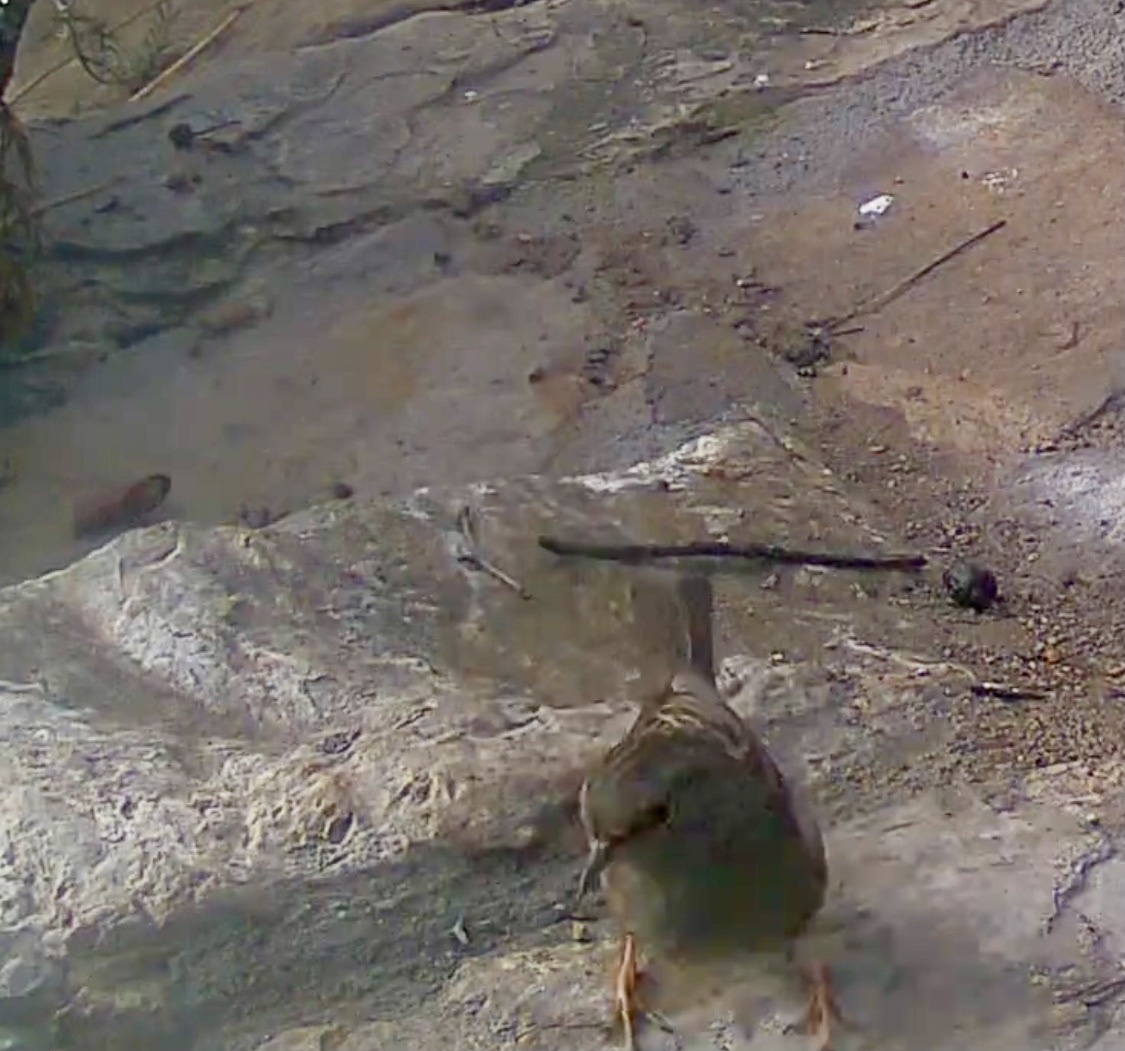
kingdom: Animalia
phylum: Chordata
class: Aves
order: Passeriformes
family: Prunellidae
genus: Prunella
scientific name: Prunella modularis
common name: Dunnock
